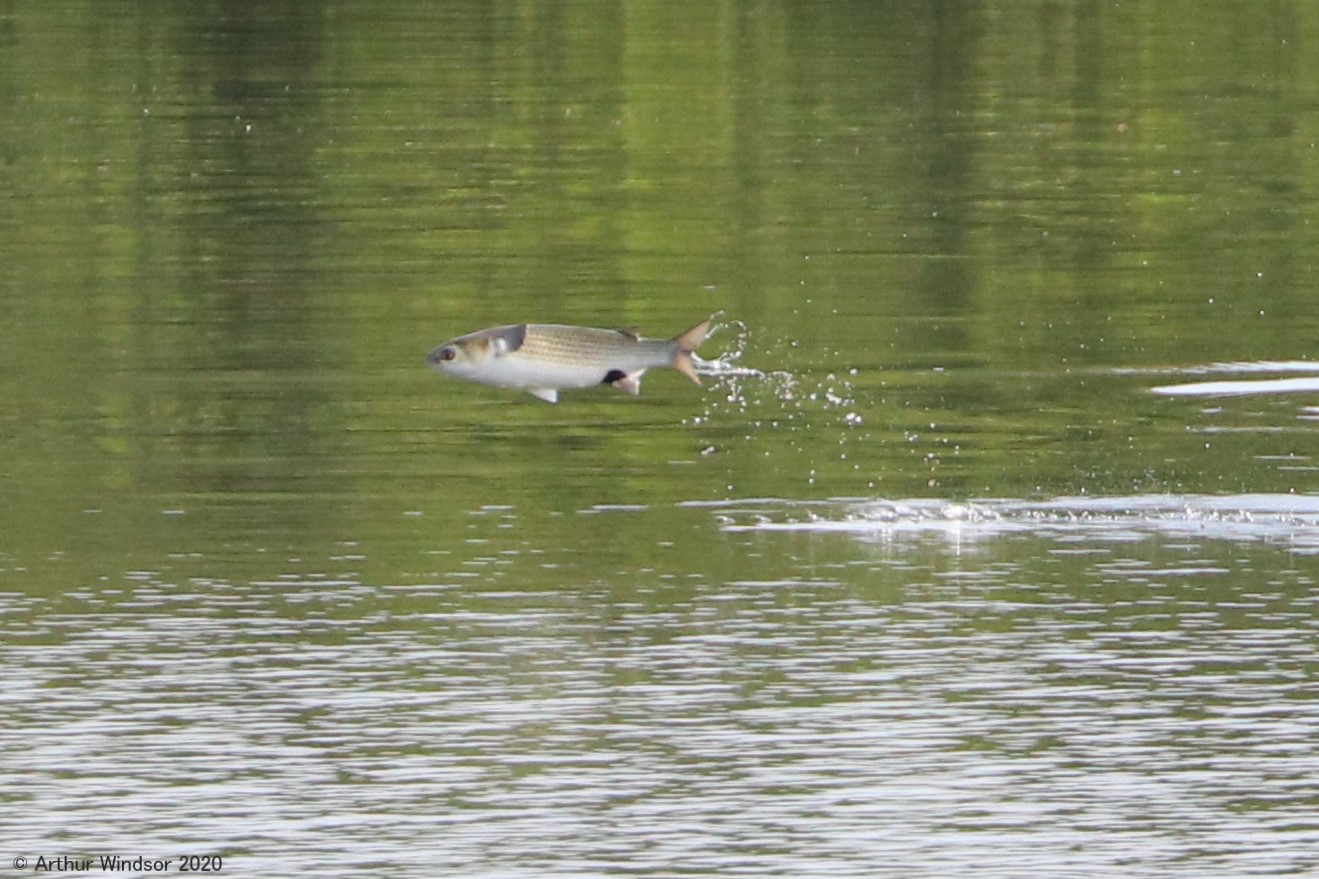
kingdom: Animalia
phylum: Chordata
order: Mugiliformes
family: Mugilidae
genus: Mugil
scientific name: Mugil cephalus
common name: Grey mullet
